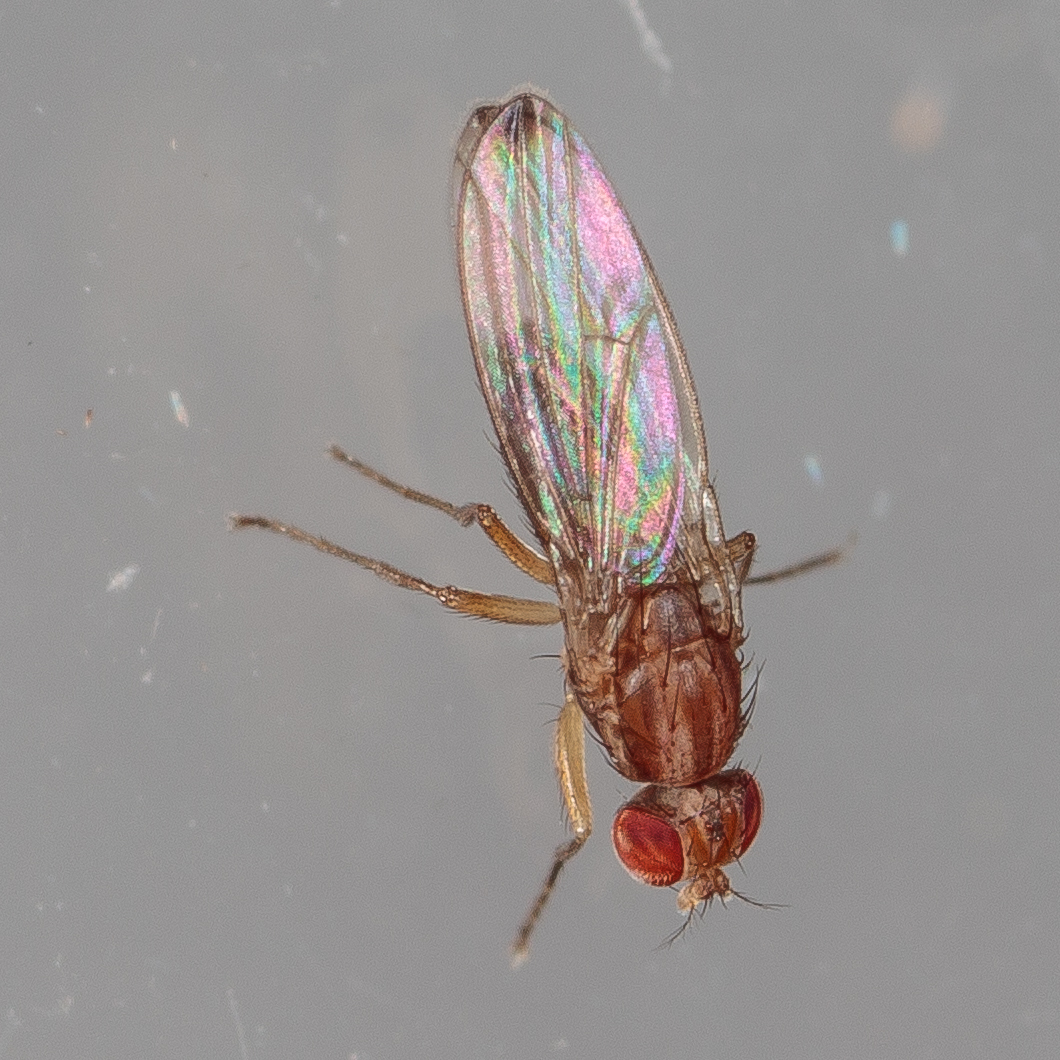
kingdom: Animalia
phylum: Arthropoda
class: Insecta
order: Diptera
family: Drosophilidae
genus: Scaptomyza
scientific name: Scaptomyza adusta
